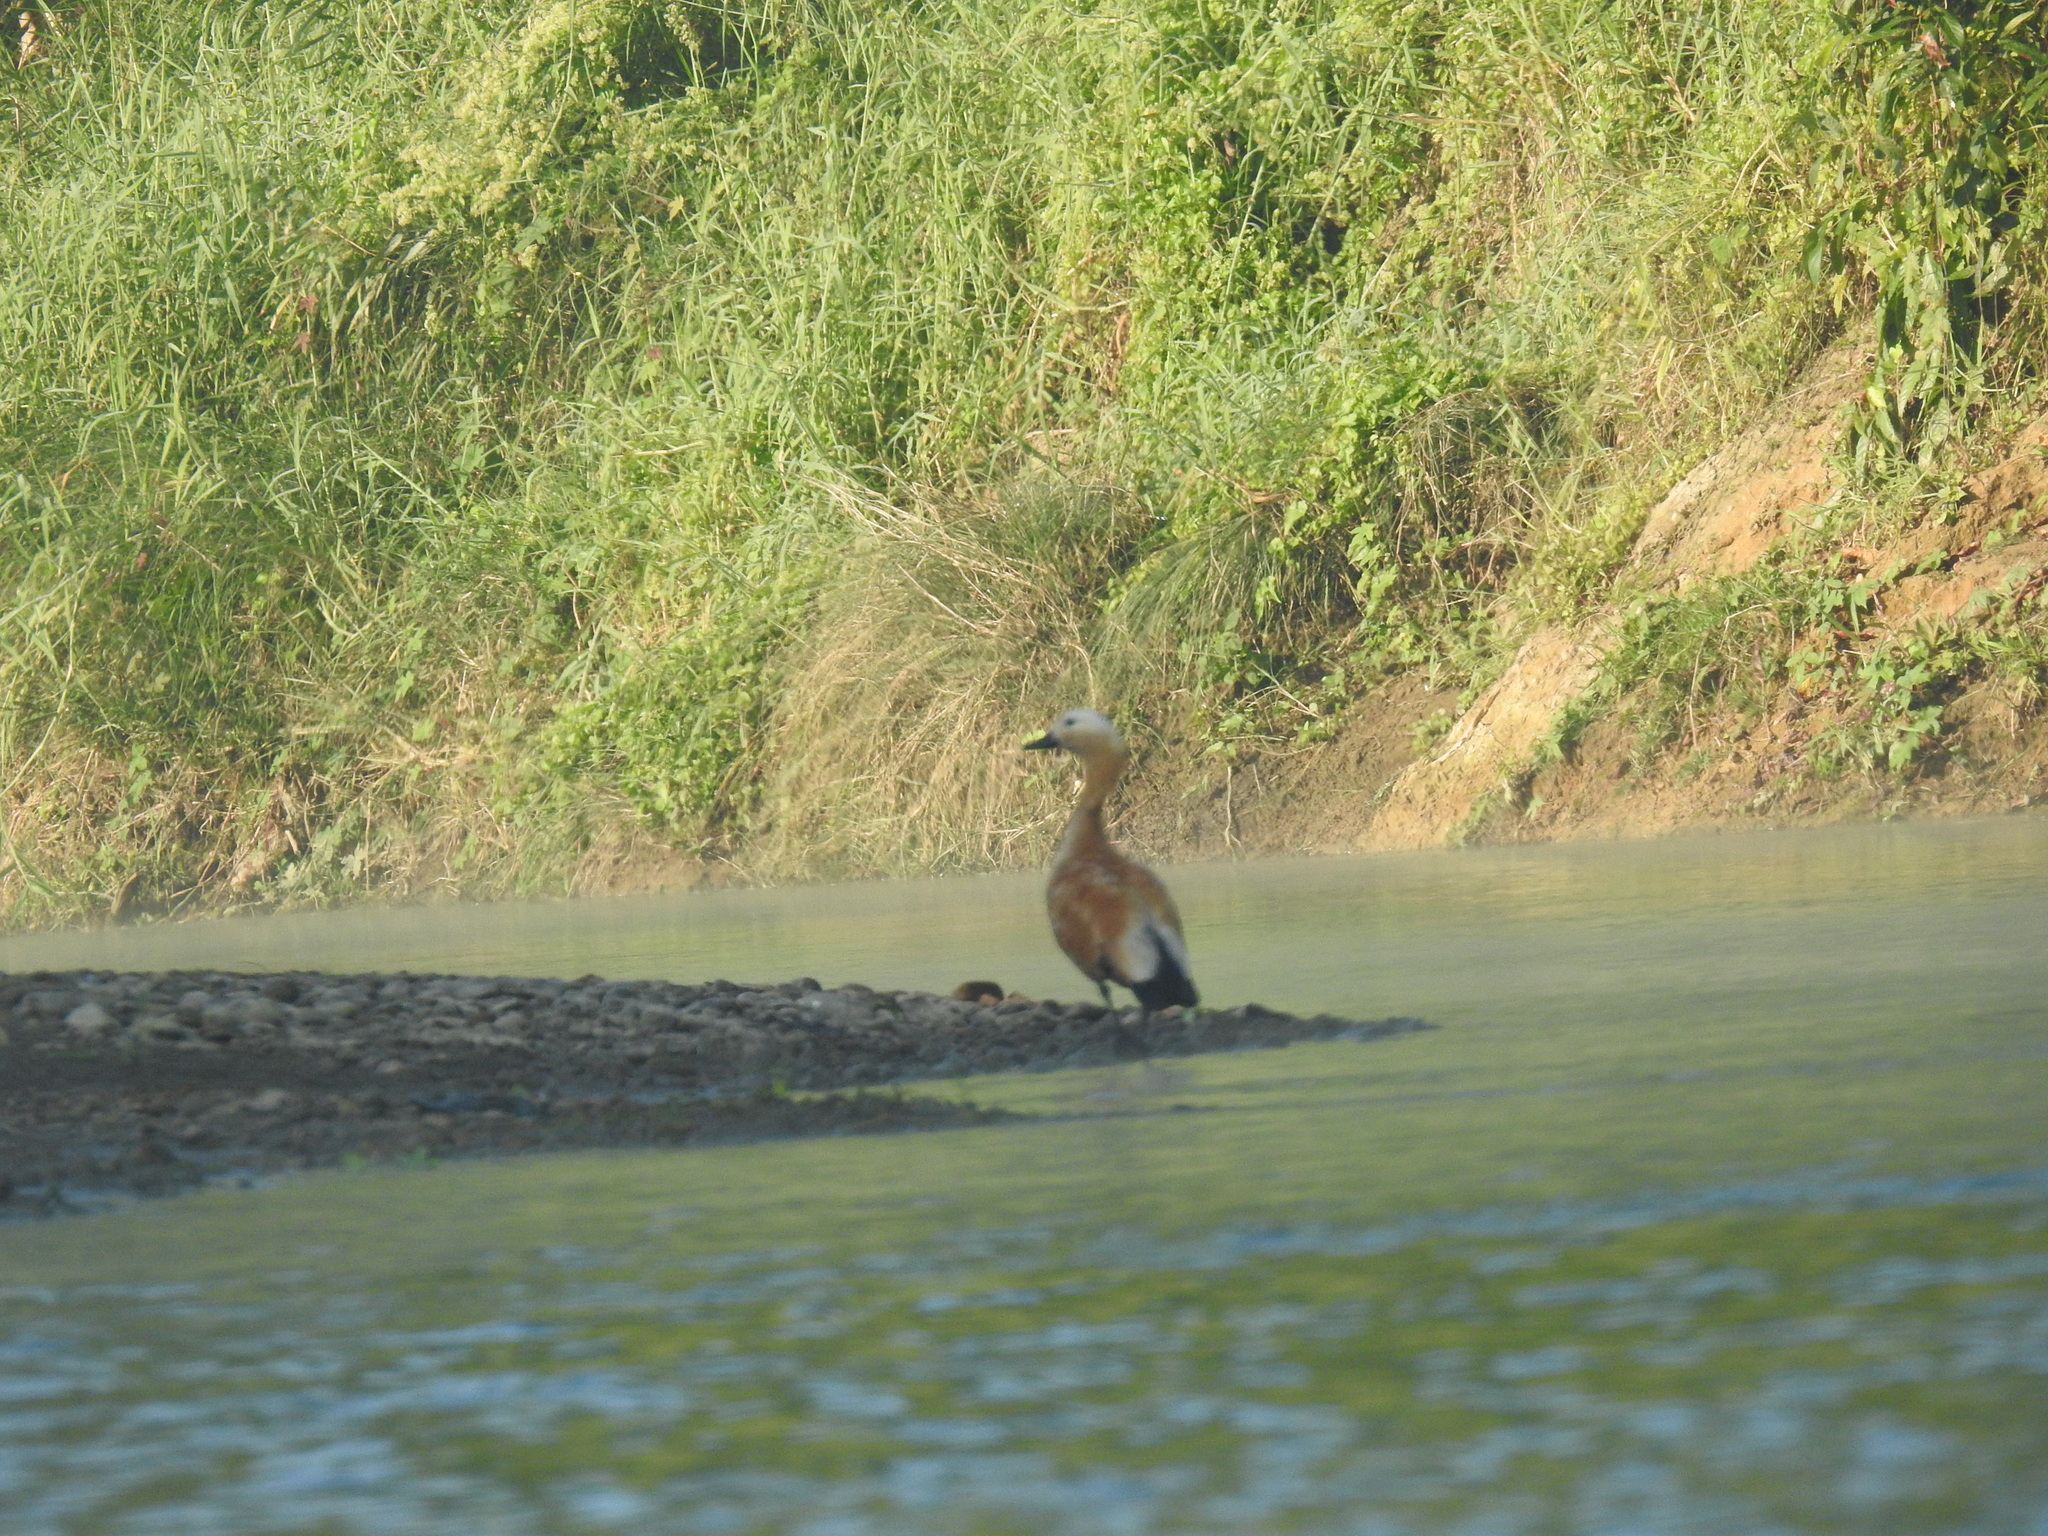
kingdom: Animalia
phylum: Chordata
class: Aves
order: Anseriformes
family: Anatidae
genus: Tadorna
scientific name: Tadorna ferruginea
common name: Ruddy shelduck
